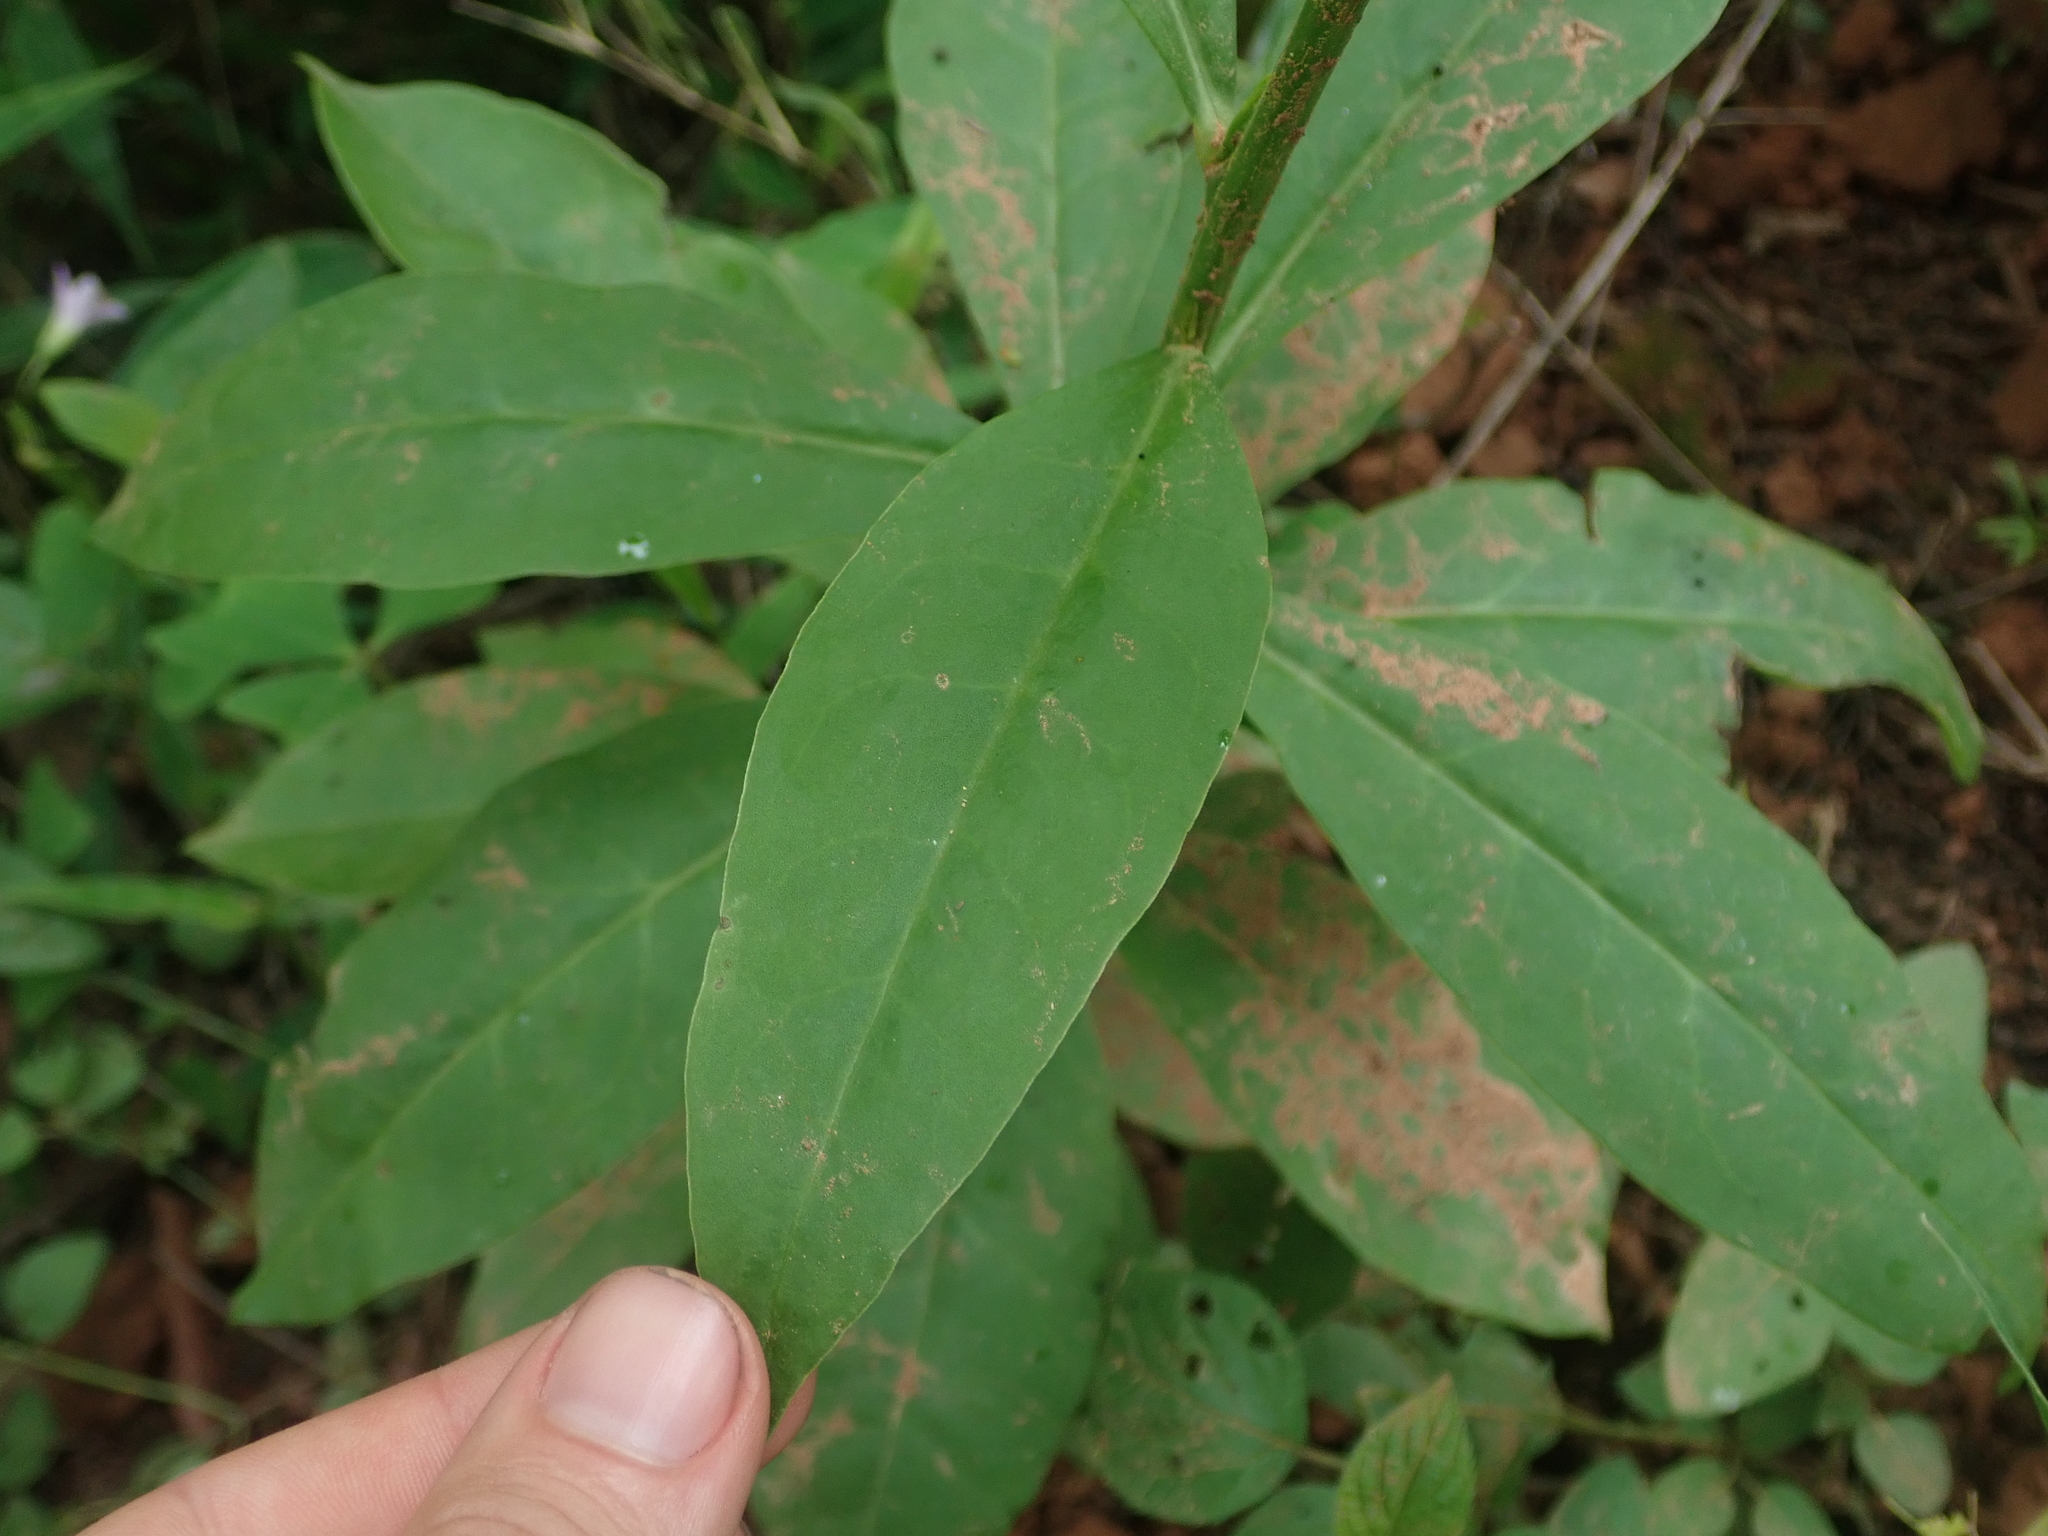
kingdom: Plantae
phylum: Tracheophyta
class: Magnoliopsida
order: Caryophyllales
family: Talinaceae
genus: Talinum
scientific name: Talinum paniculatum
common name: Jewels of opar
